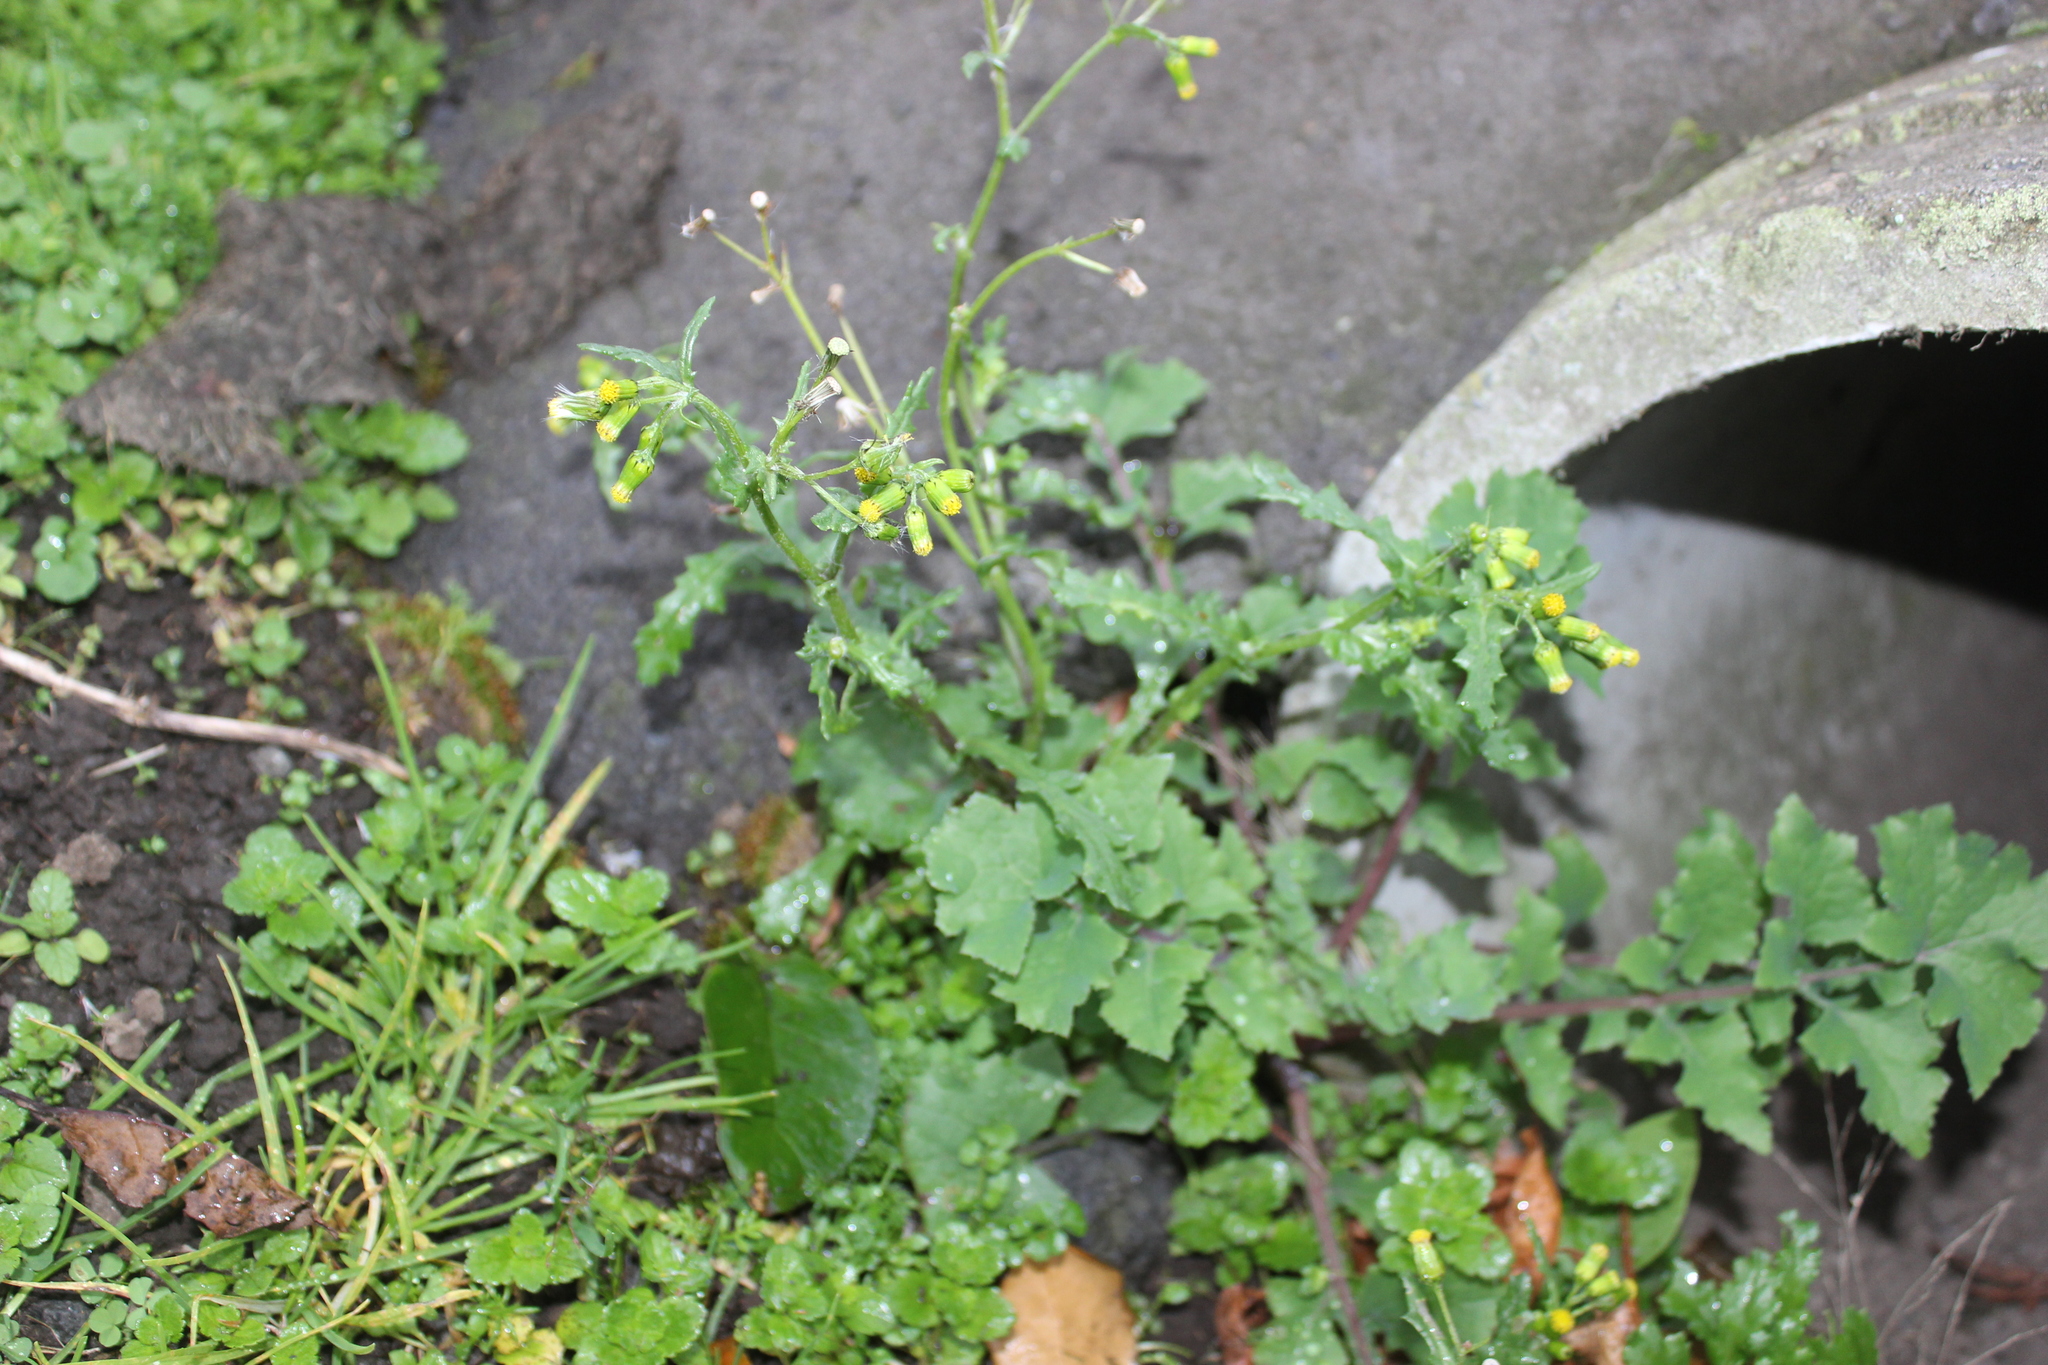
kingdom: Plantae
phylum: Tracheophyta
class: Magnoliopsida
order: Asterales
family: Asteraceae
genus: Senecio
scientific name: Senecio vulgaris
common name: Old-man-in-the-spring
